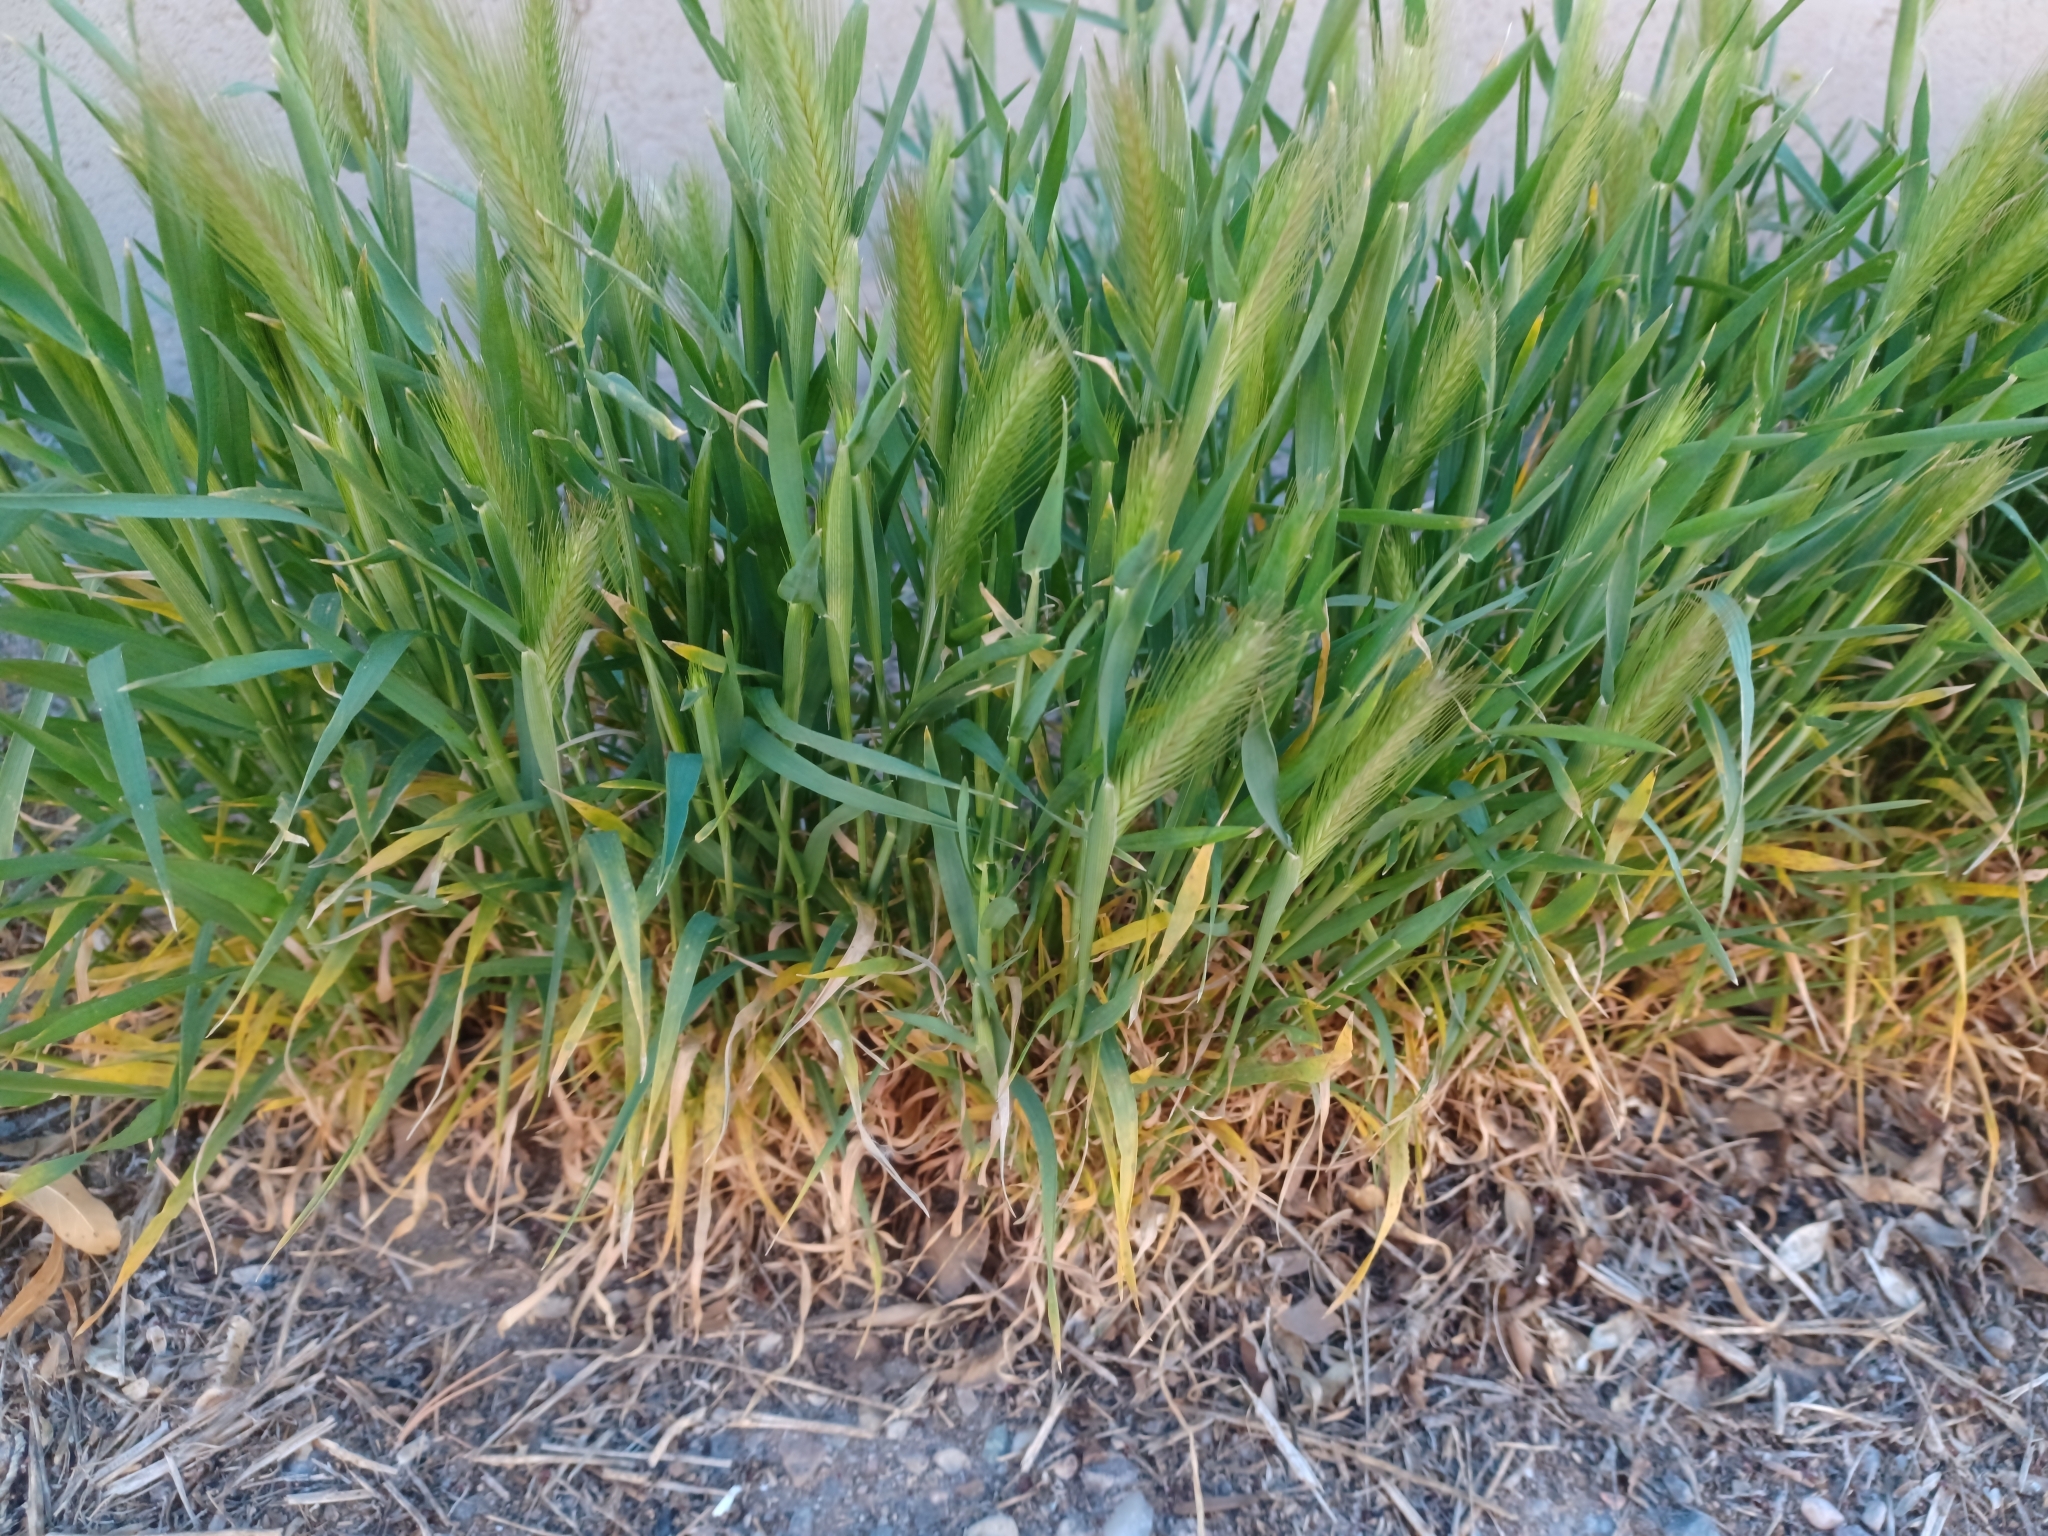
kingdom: Plantae
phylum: Tracheophyta
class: Liliopsida
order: Poales
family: Poaceae
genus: Hordeum
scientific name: Hordeum murinum
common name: Wall barley
